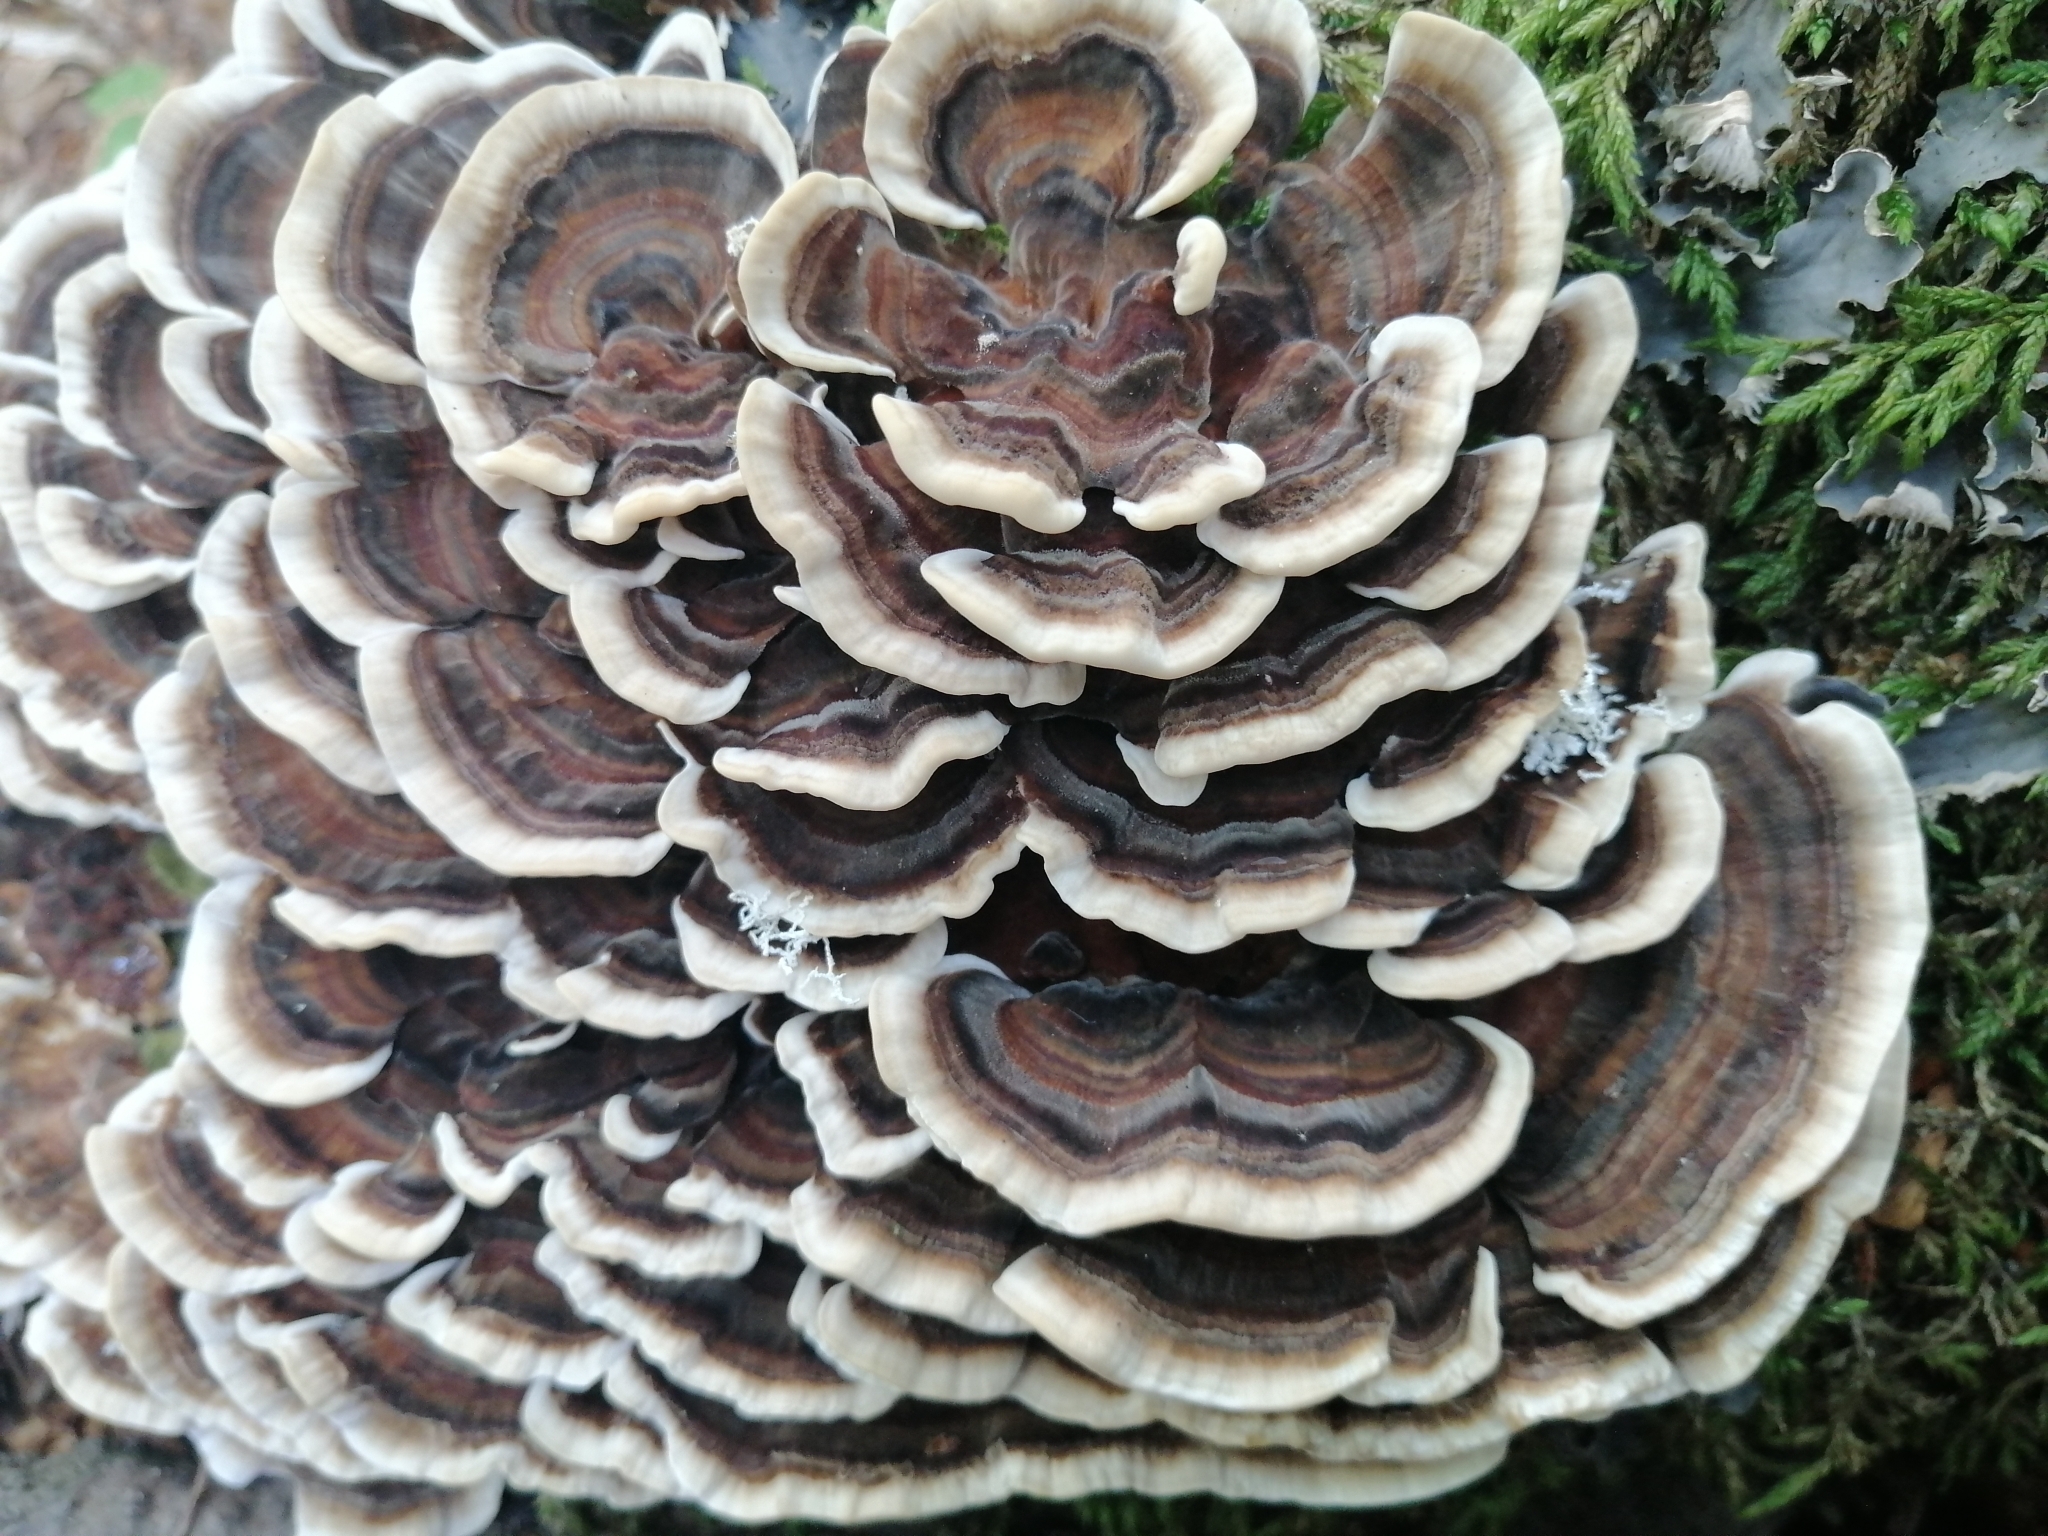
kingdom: Fungi
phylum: Basidiomycota
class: Agaricomycetes
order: Polyporales
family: Polyporaceae
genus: Trametes
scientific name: Trametes versicolor
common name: Turkeytail
